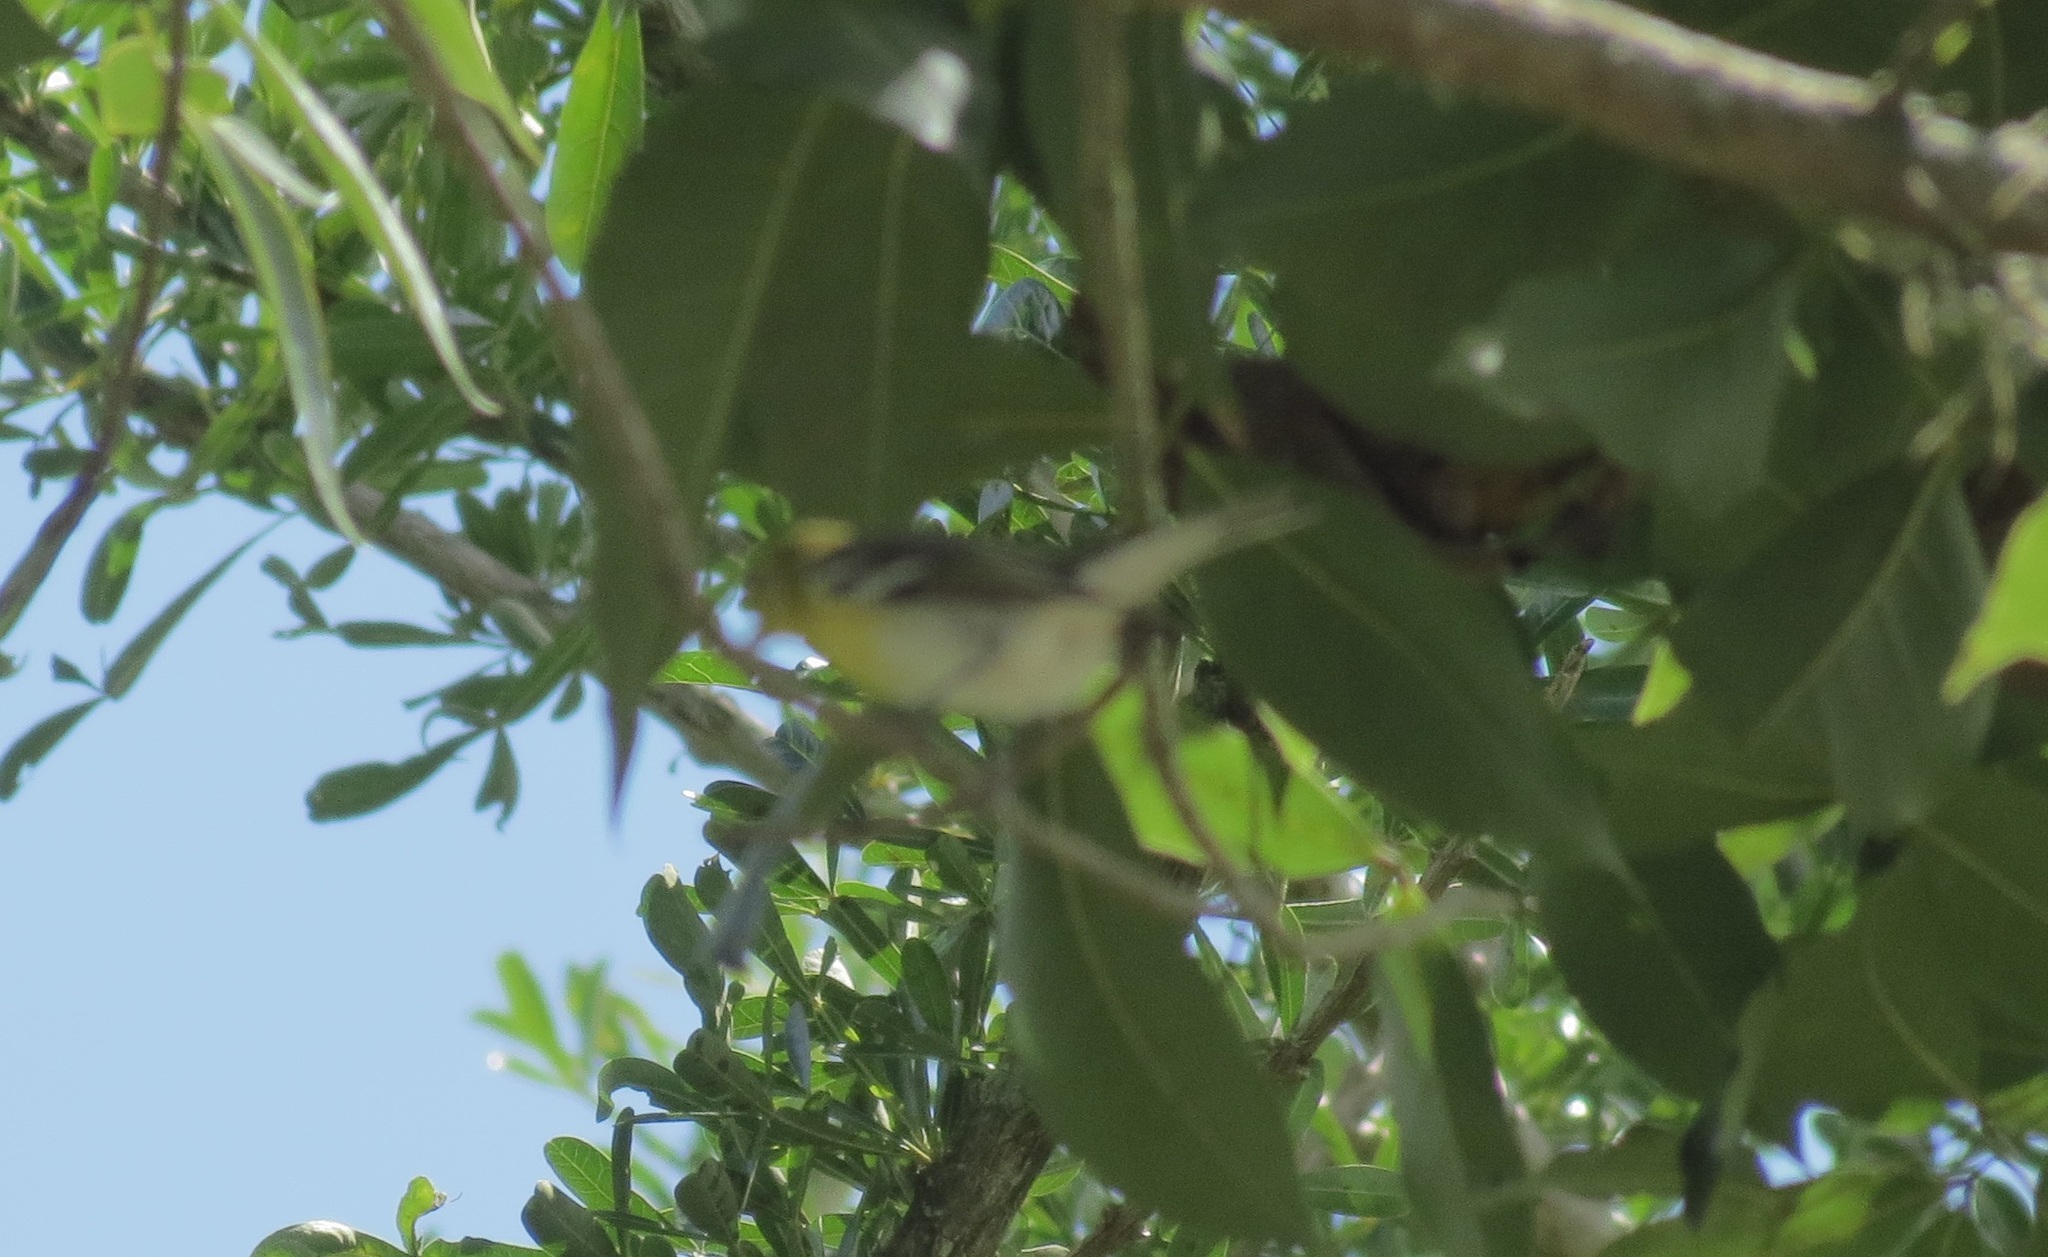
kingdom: Animalia
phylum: Chordata
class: Aves
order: Passeriformes
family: Vireonidae
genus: Vireo
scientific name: Vireo flavifrons
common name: Yellow-throated vireo
